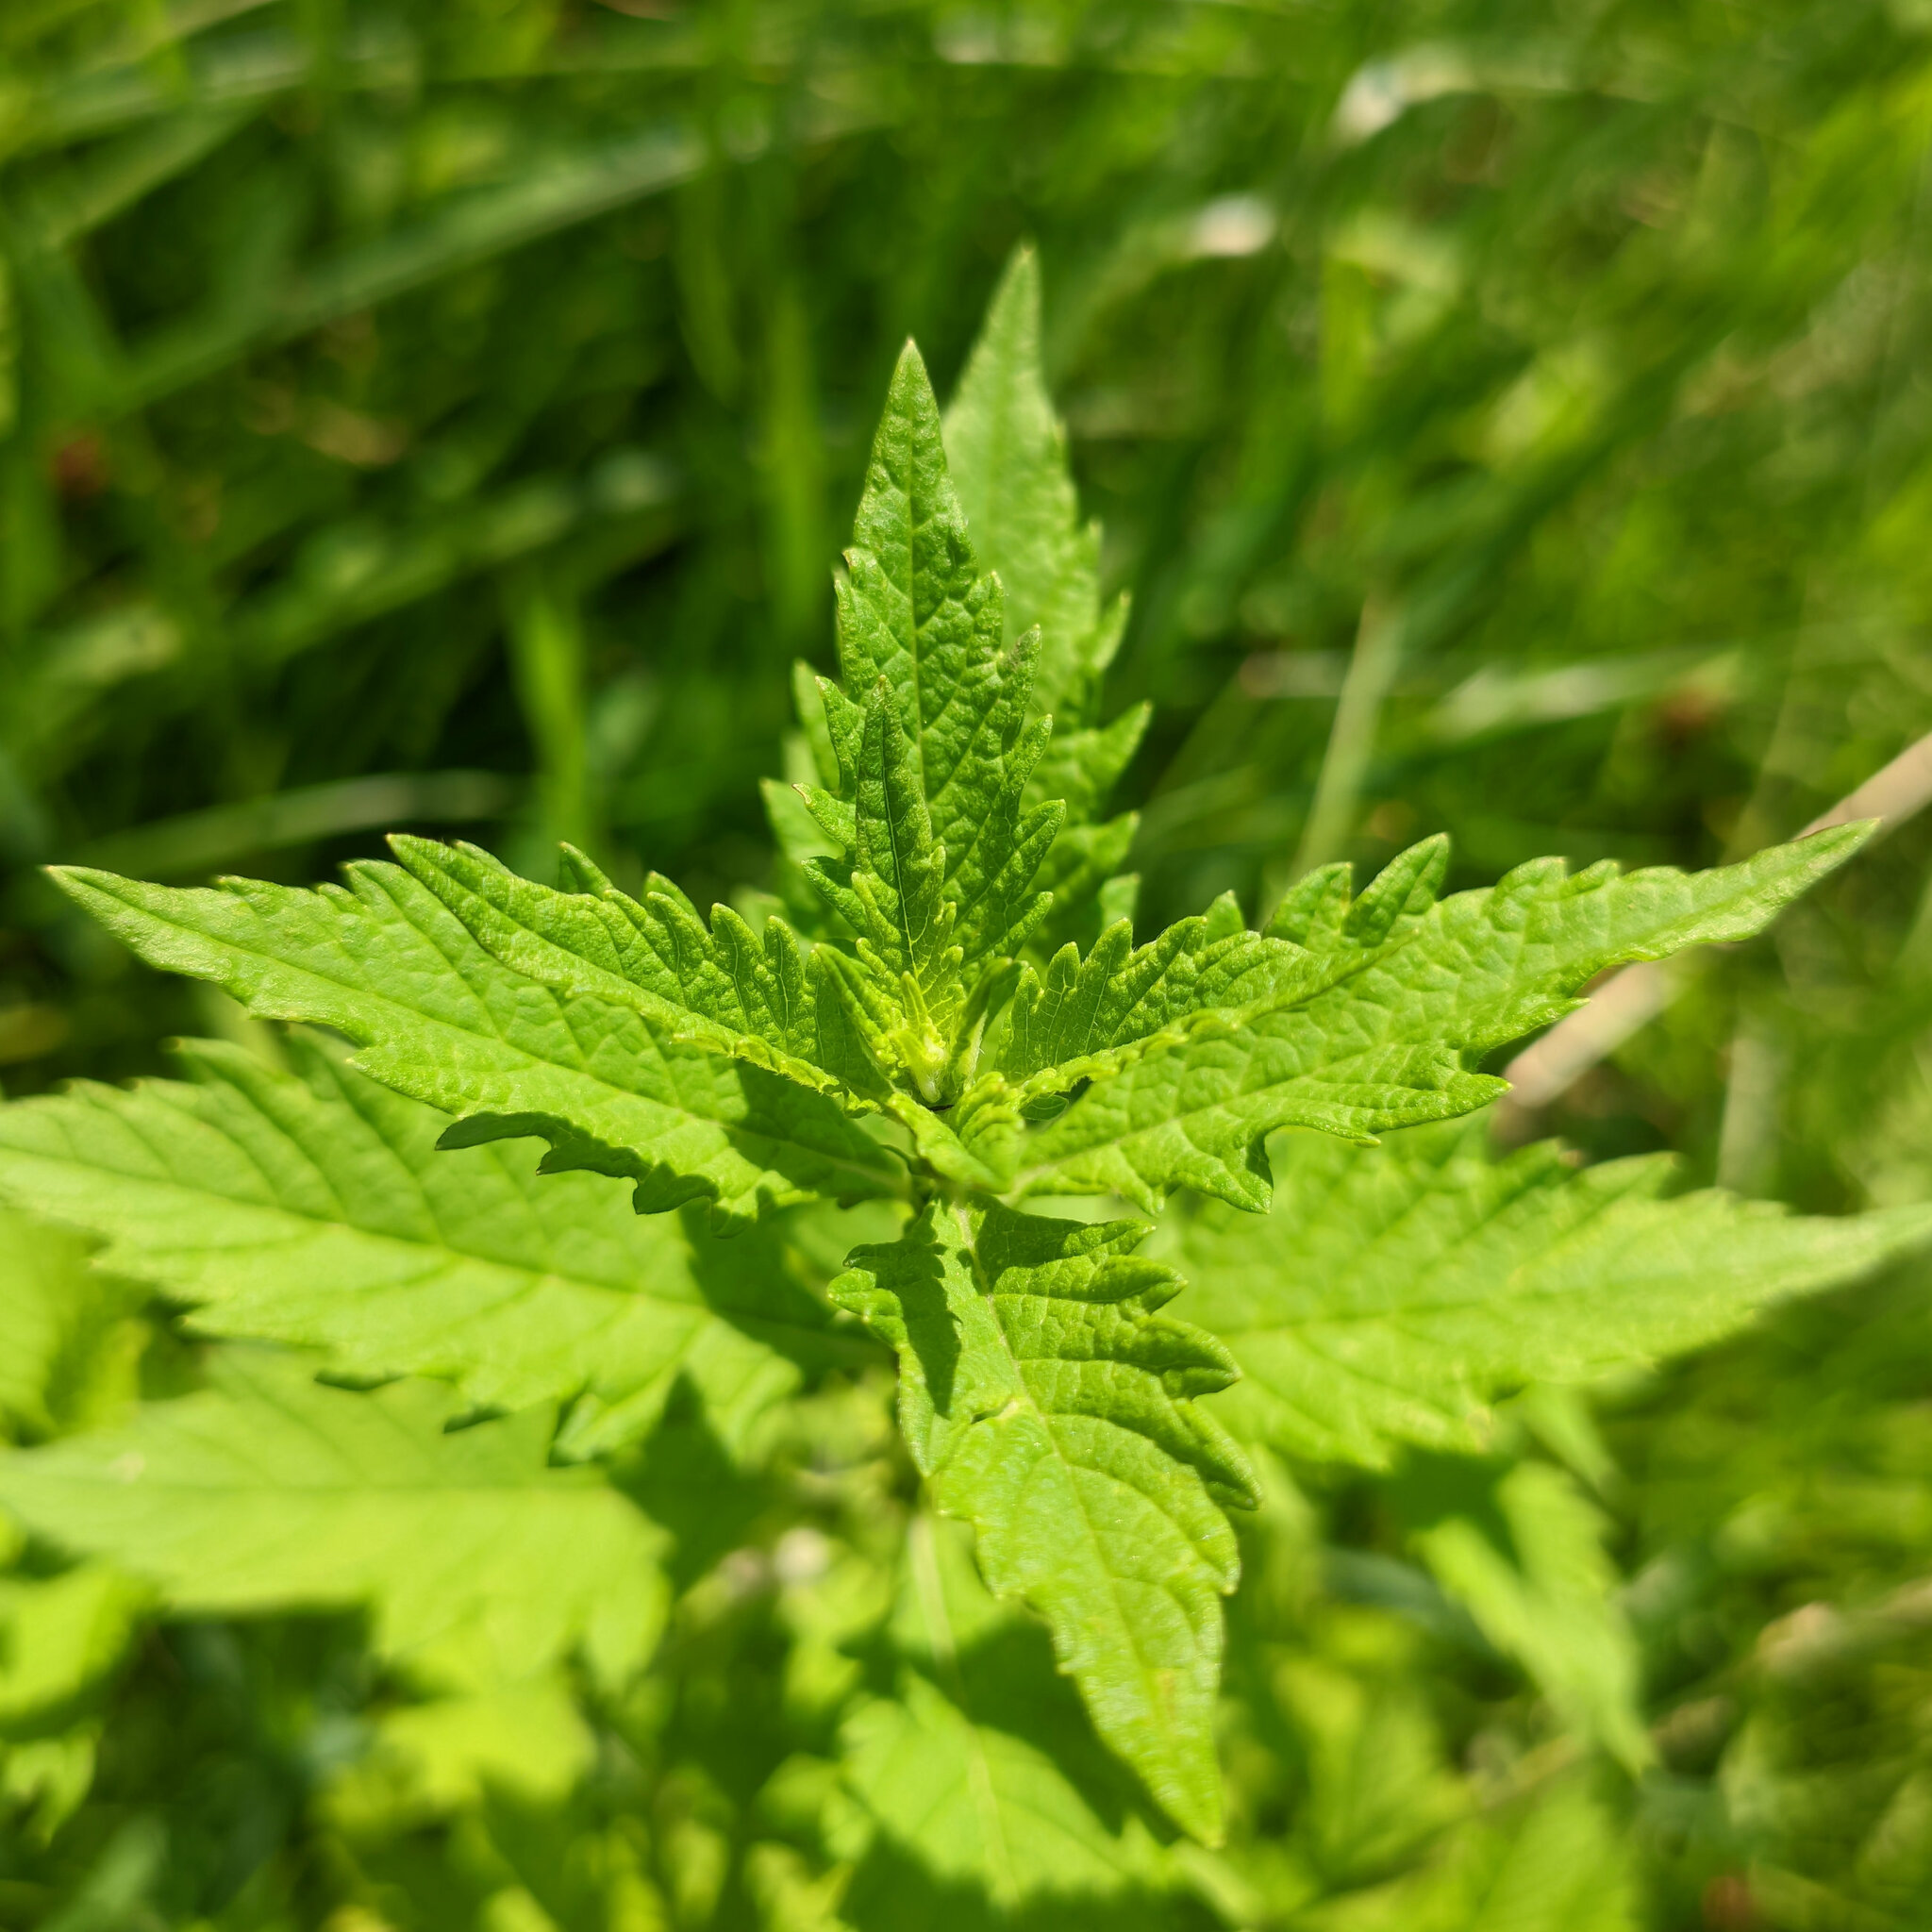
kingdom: Plantae
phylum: Tracheophyta
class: Magnoliopsida
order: Lamiales
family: Lamiaceae
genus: Lycopus
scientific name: Lycopus europaeus
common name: European bugleweed
